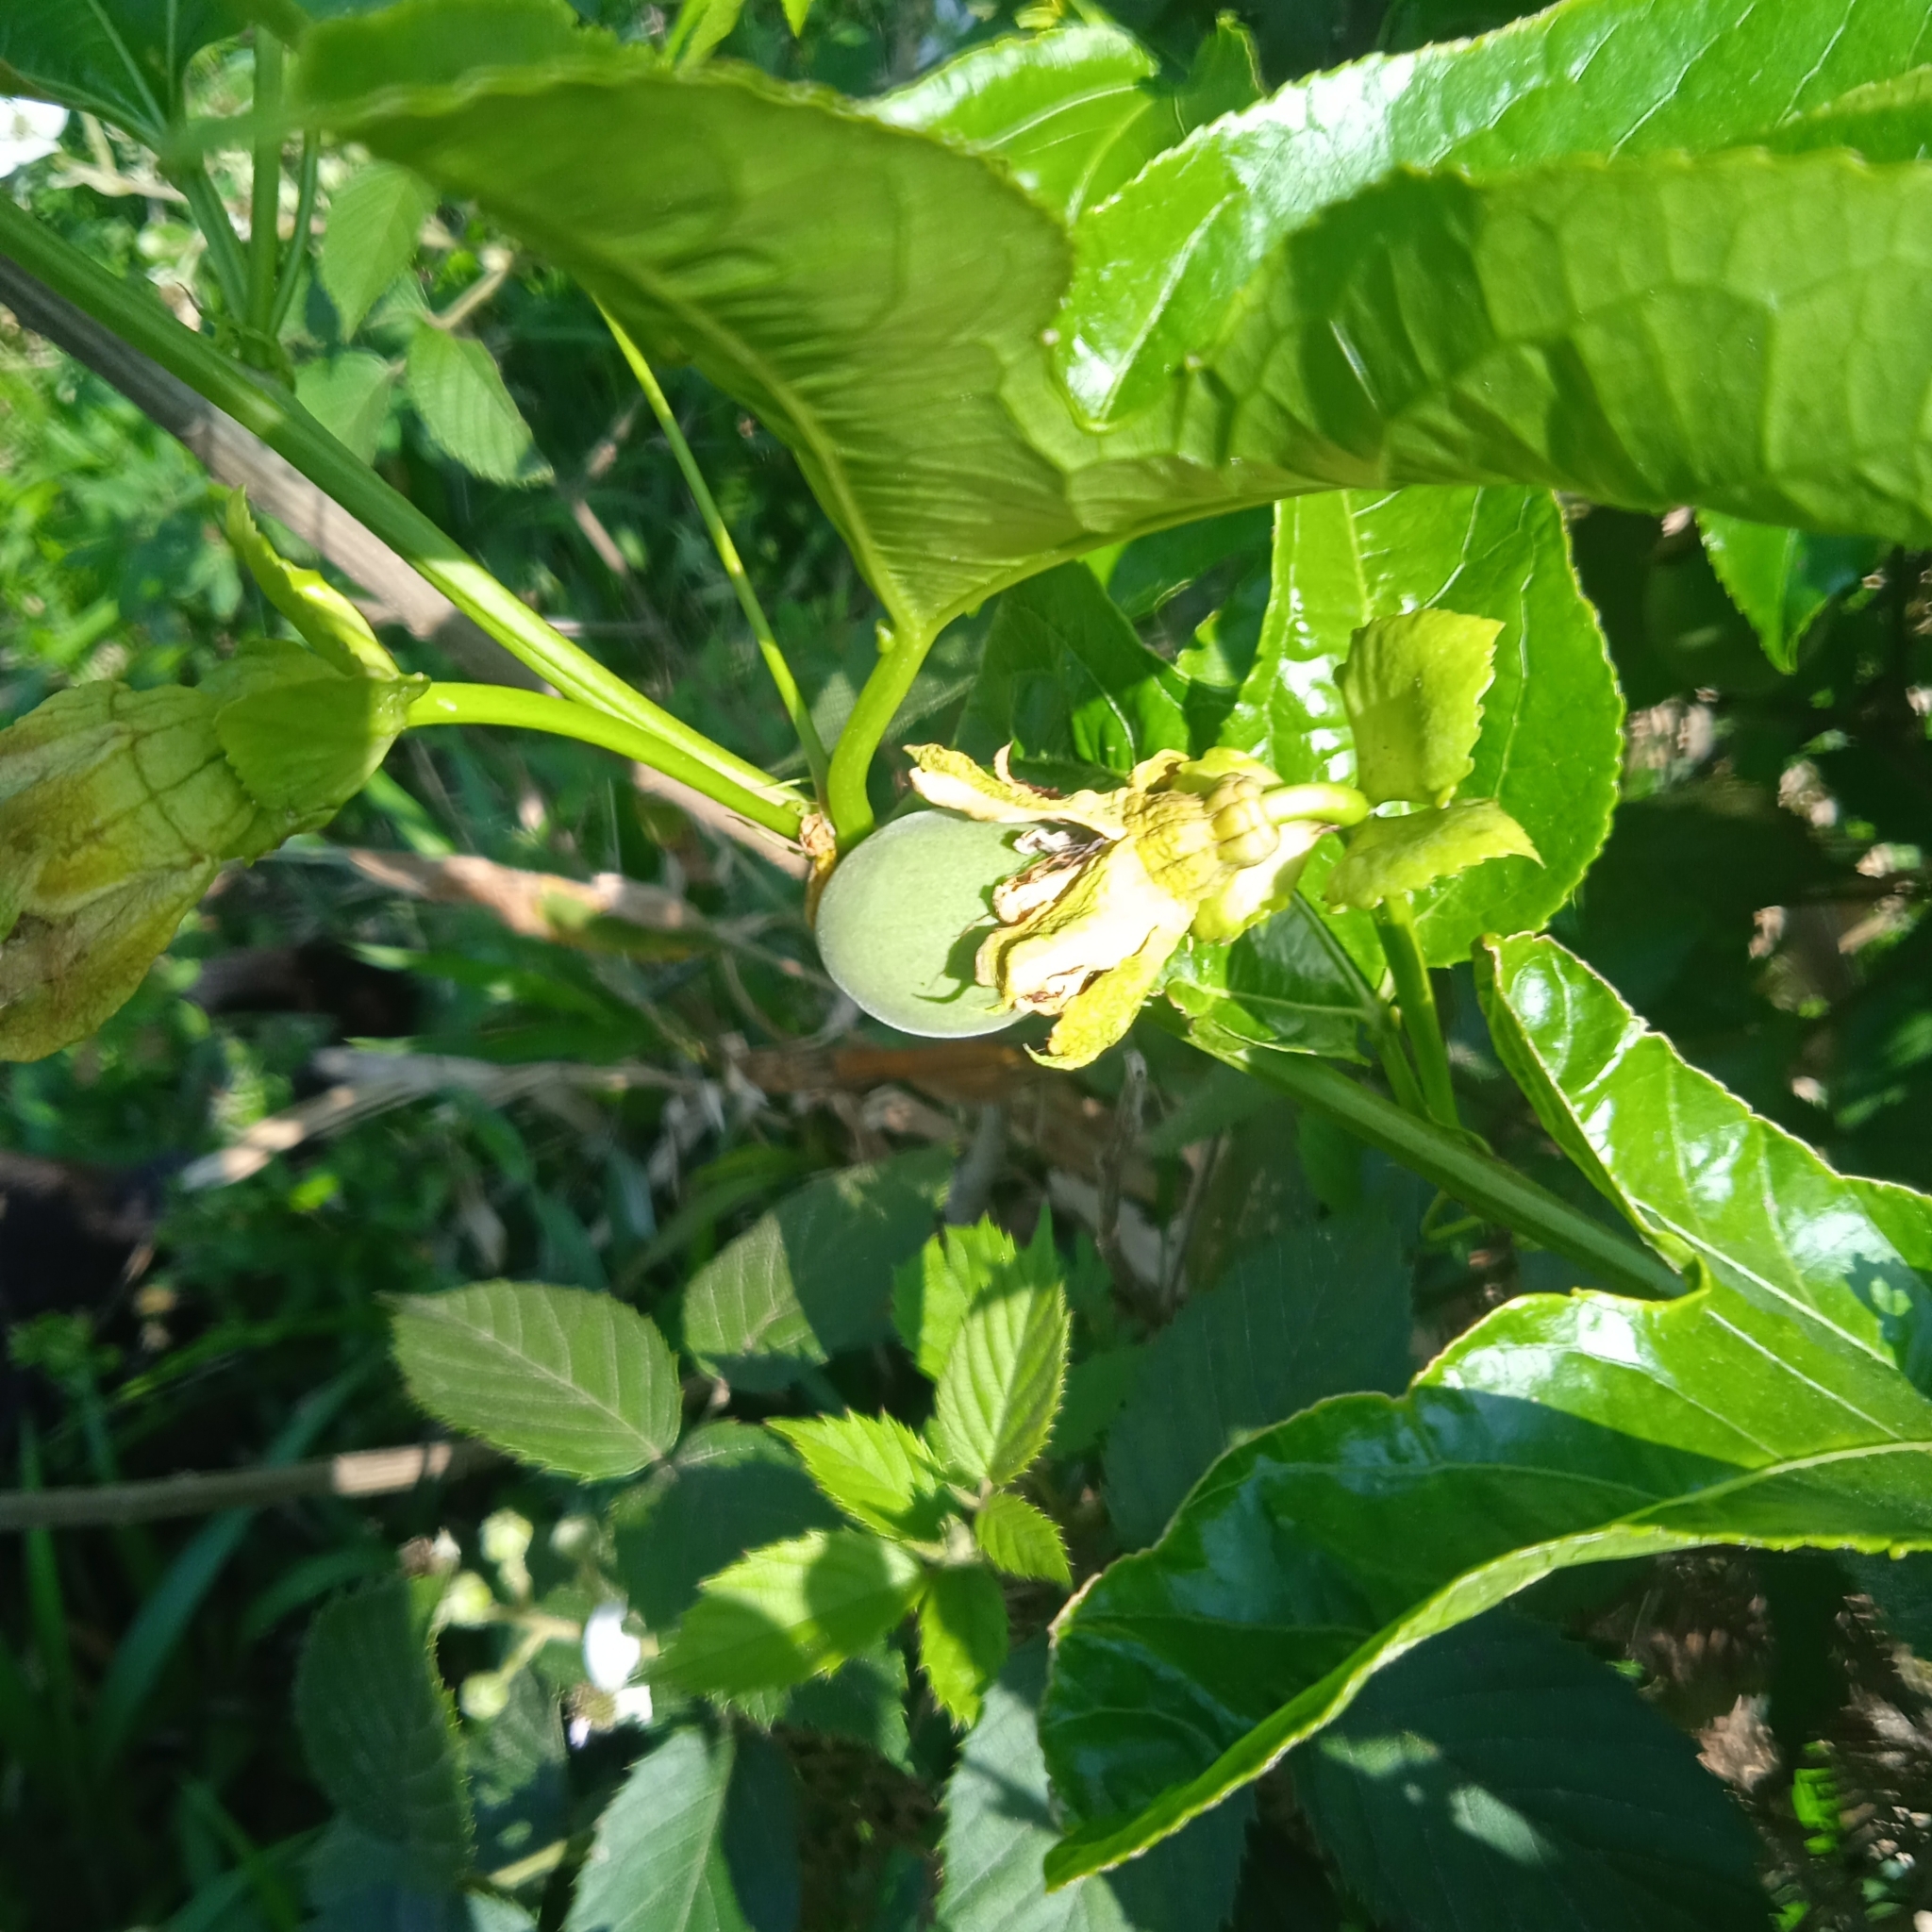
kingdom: Plantae
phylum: Tracheophyta
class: Magnoliopsida
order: Malpighiales
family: Passifloraceae
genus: Passiflora
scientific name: Passiflora edulis
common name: Purple granadilla
